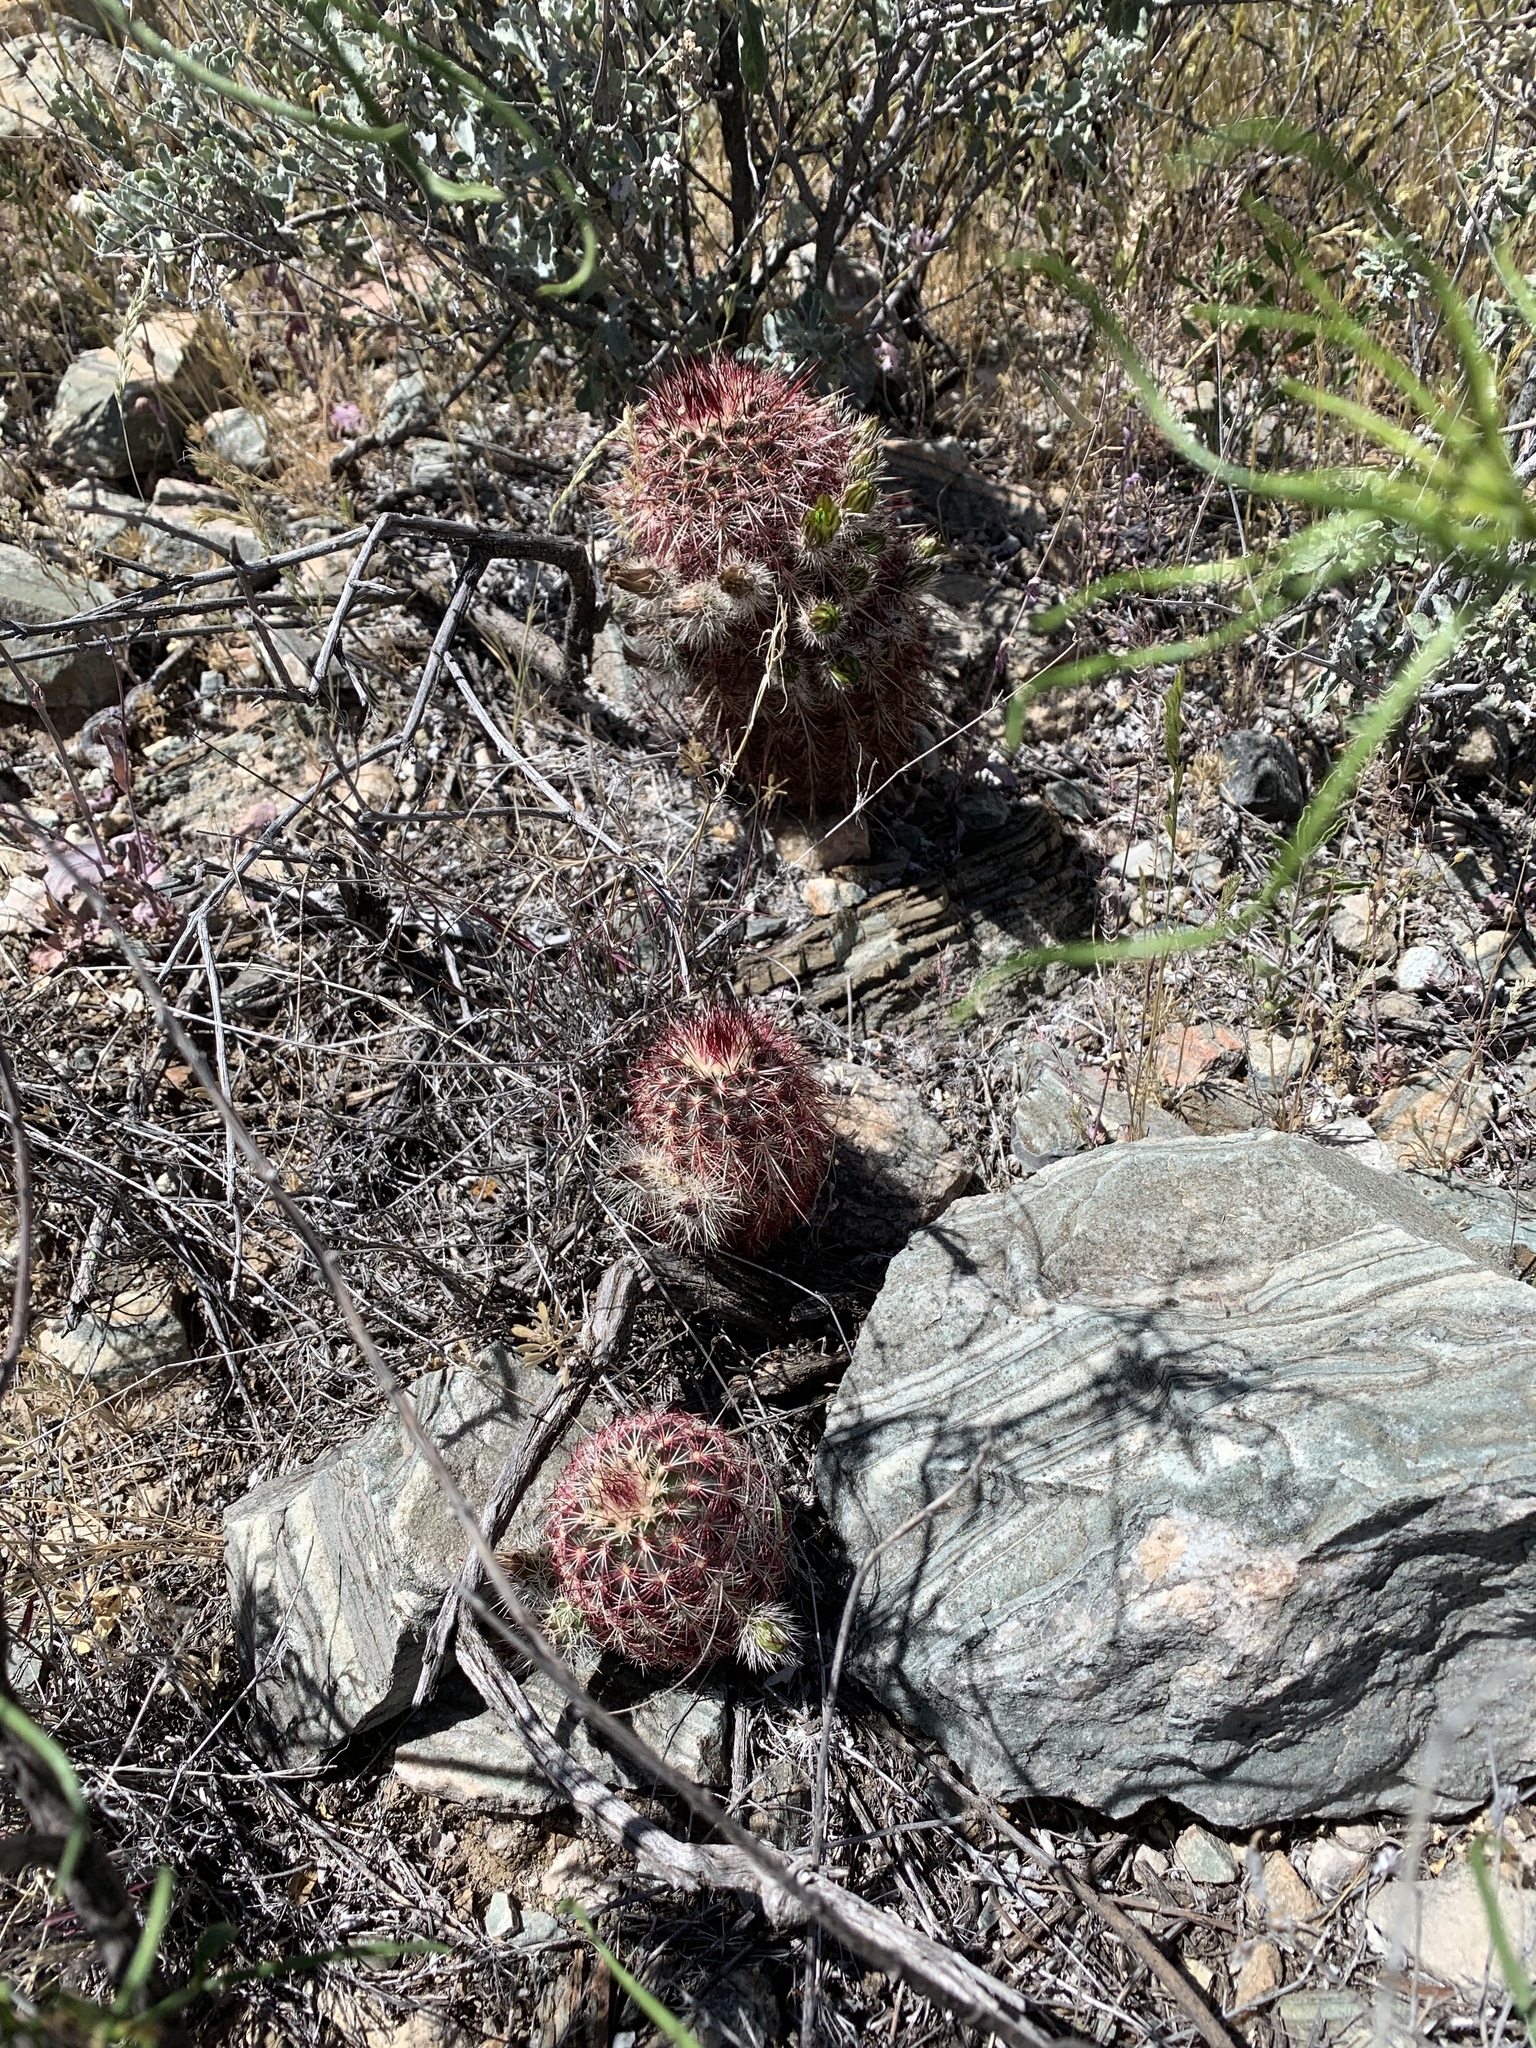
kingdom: Plantae
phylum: Tracheophyta
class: Magnoliopsida
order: Caryophyllales
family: Cactaceae
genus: Echinocereus
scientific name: Echinocereus viridiflorus
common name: Nylon hedgehog cactus
